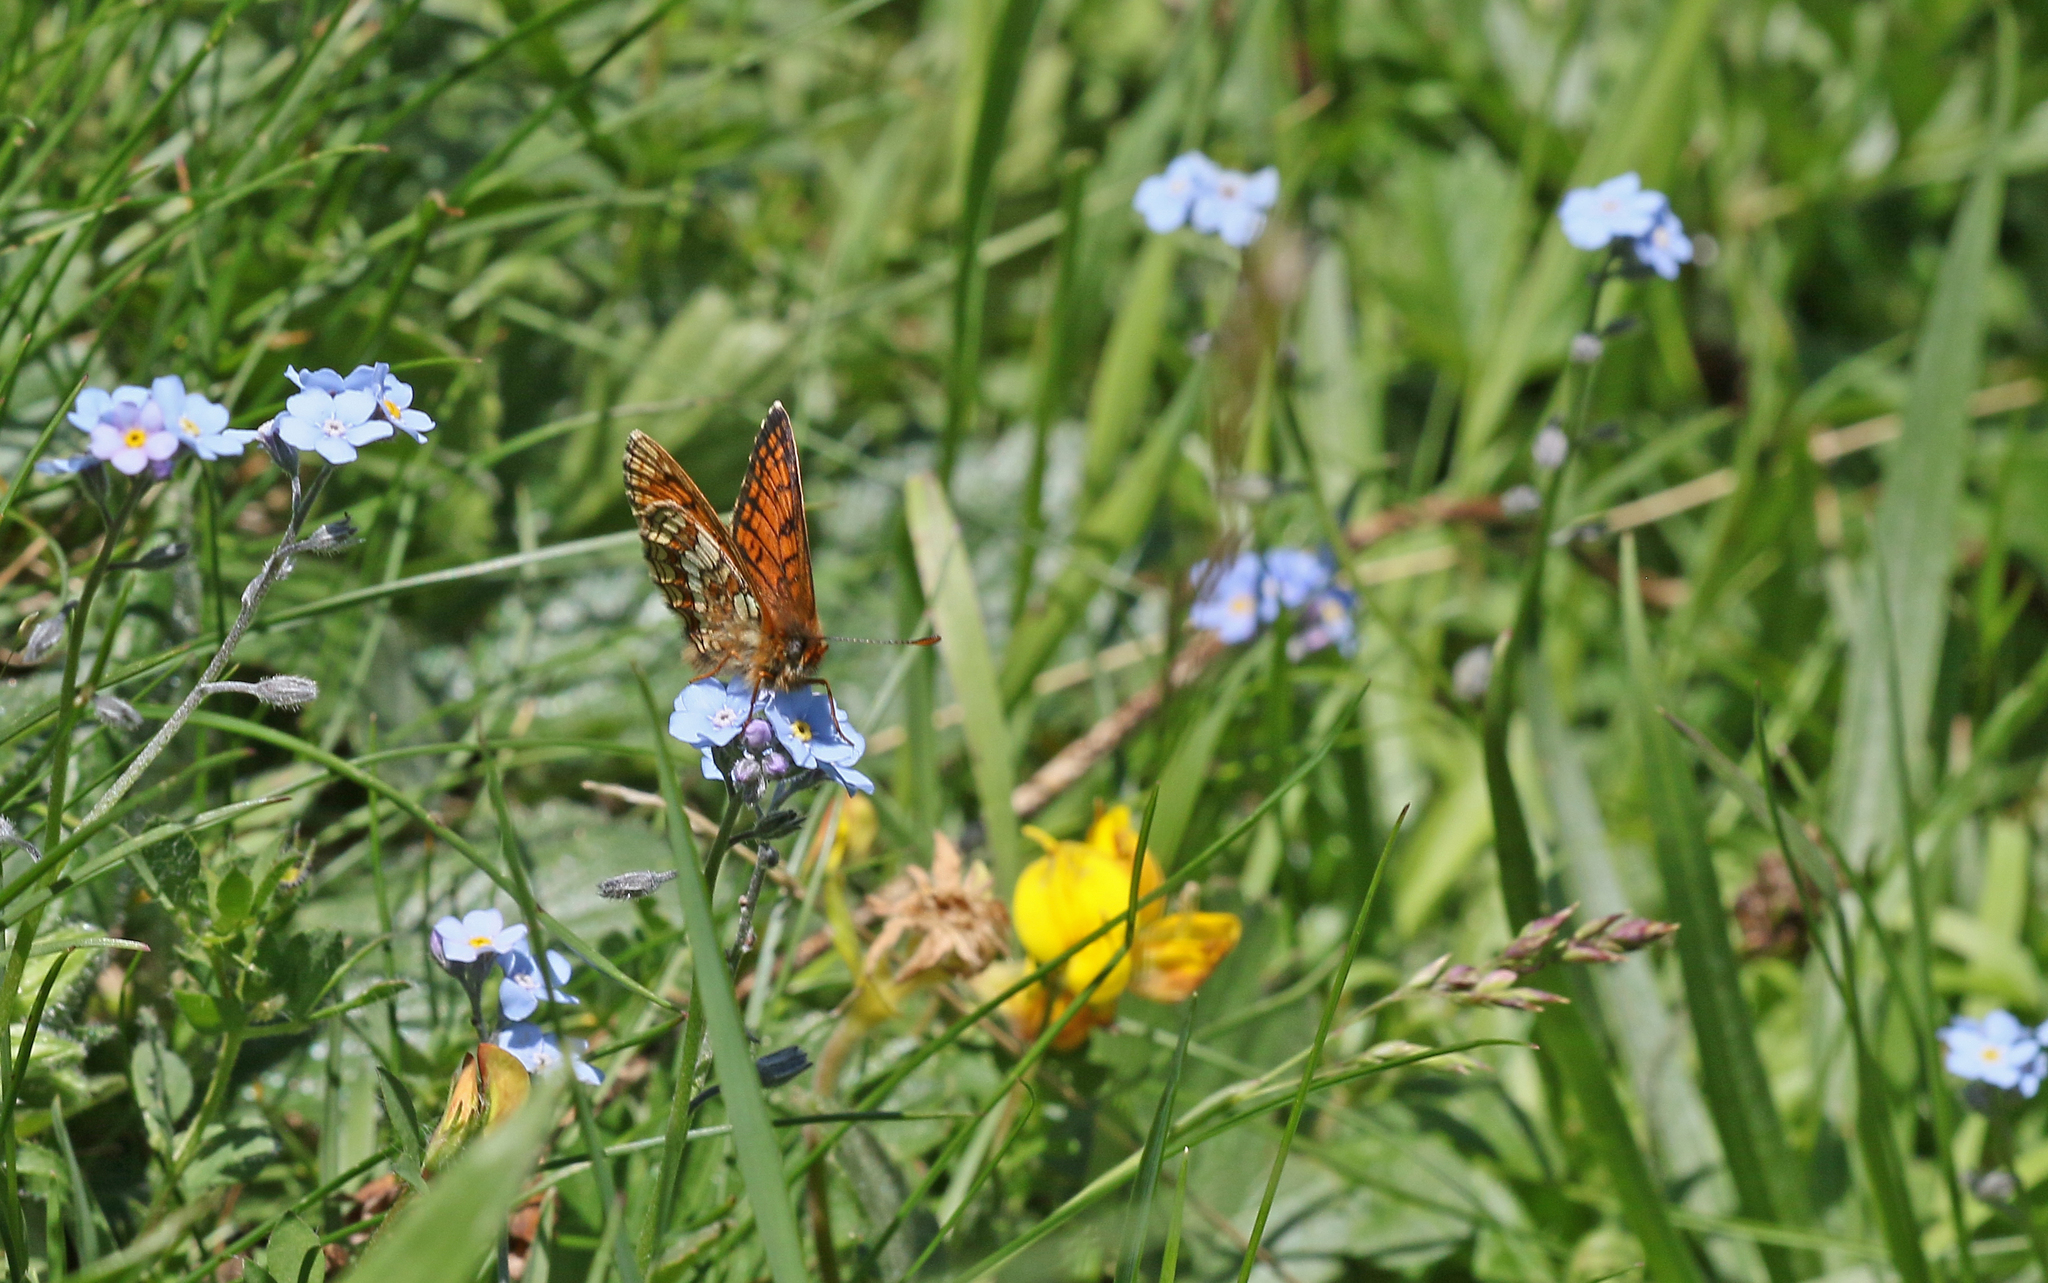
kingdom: Animalia
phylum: Arthropoda
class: Insecta
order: Lepidoptera
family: Nymphalidae
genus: Melitaea
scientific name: Melitaea varia
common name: Grisons fritillary
